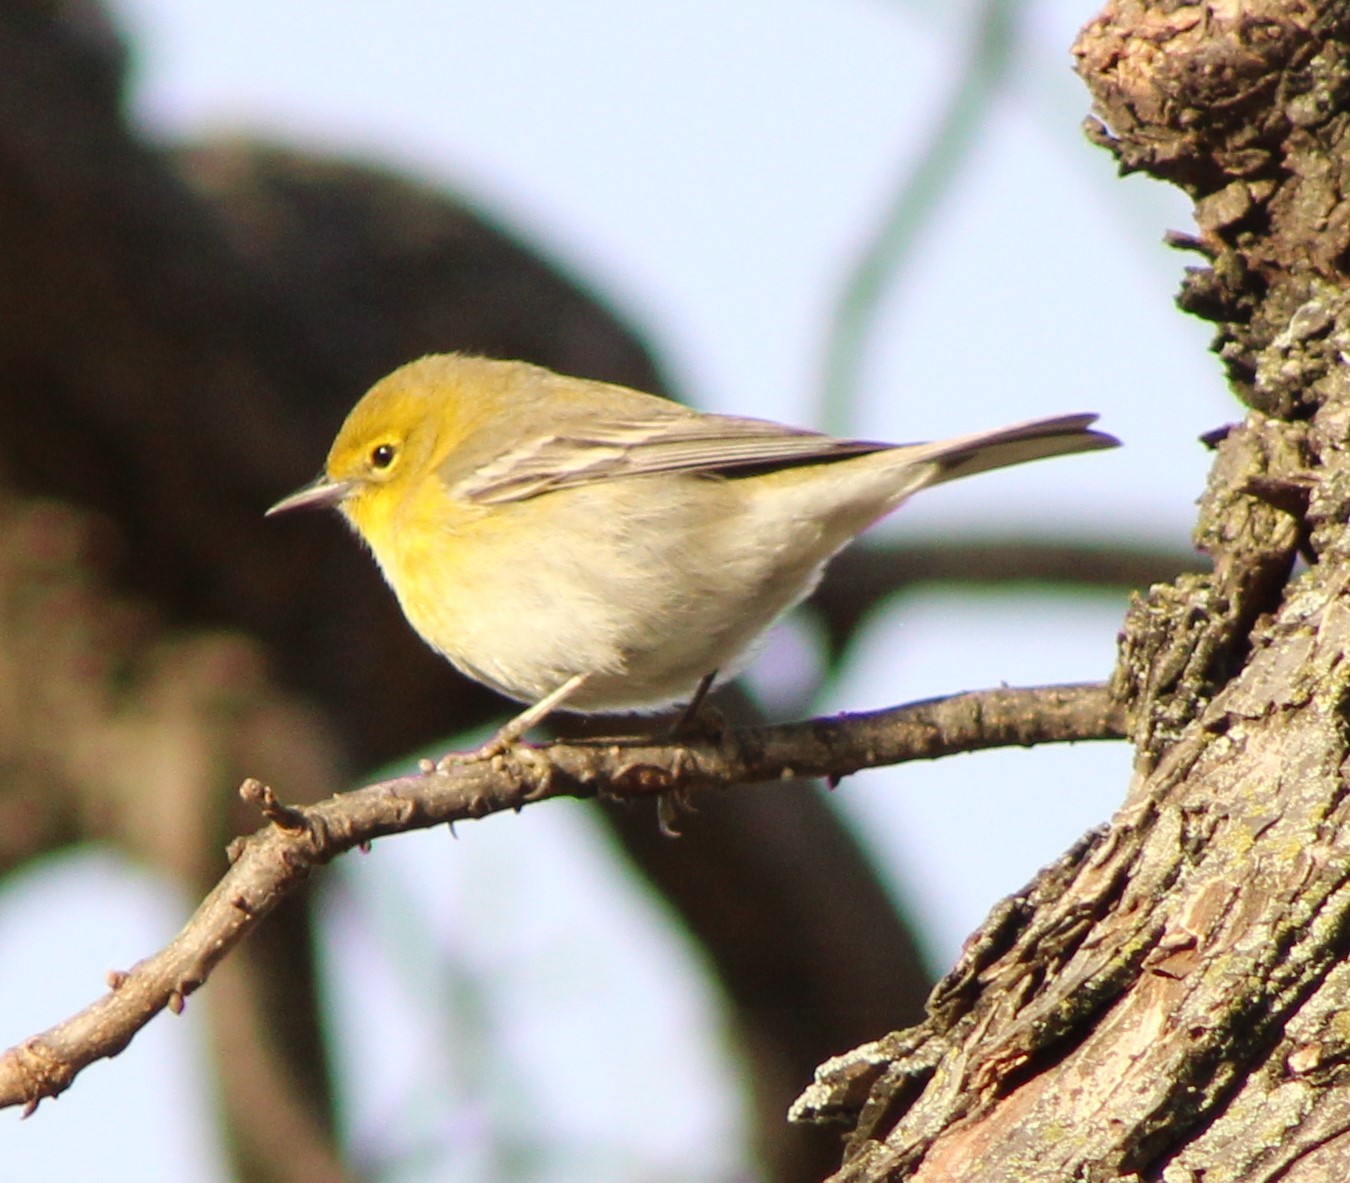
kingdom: Animalia
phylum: Chordata
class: Aves
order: Passeriformes
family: Parulidae
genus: Setophaga
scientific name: Setophaga pinus
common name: Pine warbler
